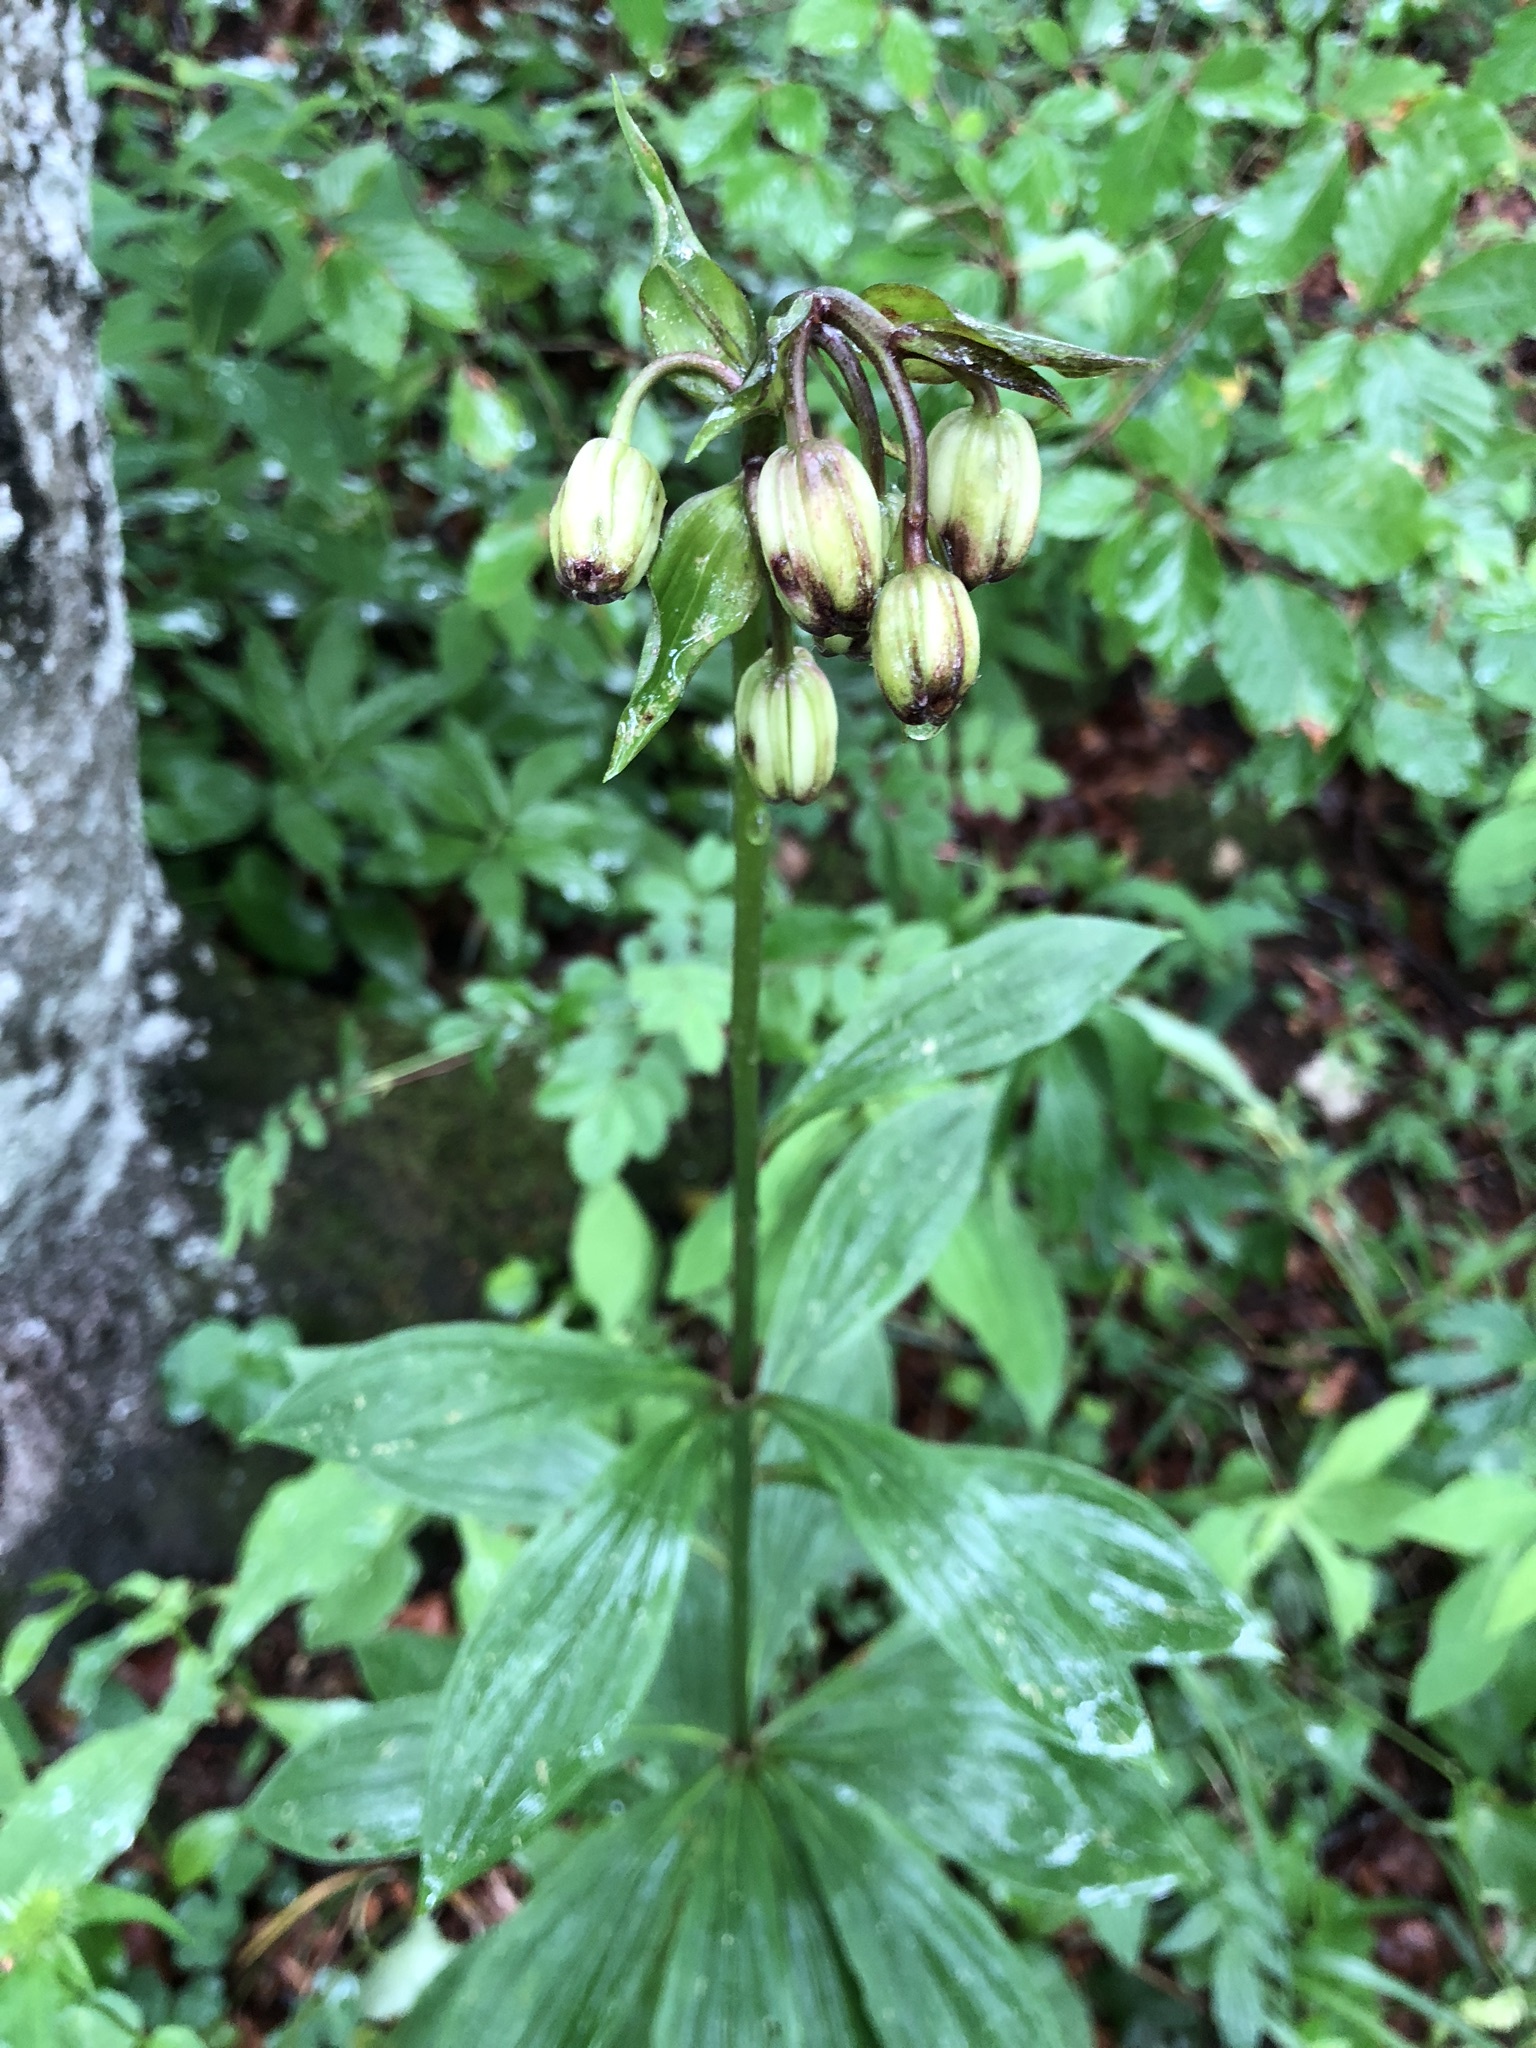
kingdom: Plantae
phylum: Tracheophyta
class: Liliopsida
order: Liliales
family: Liliaceae
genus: Lilium
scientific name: Lilium martagon
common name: Martagon lily
